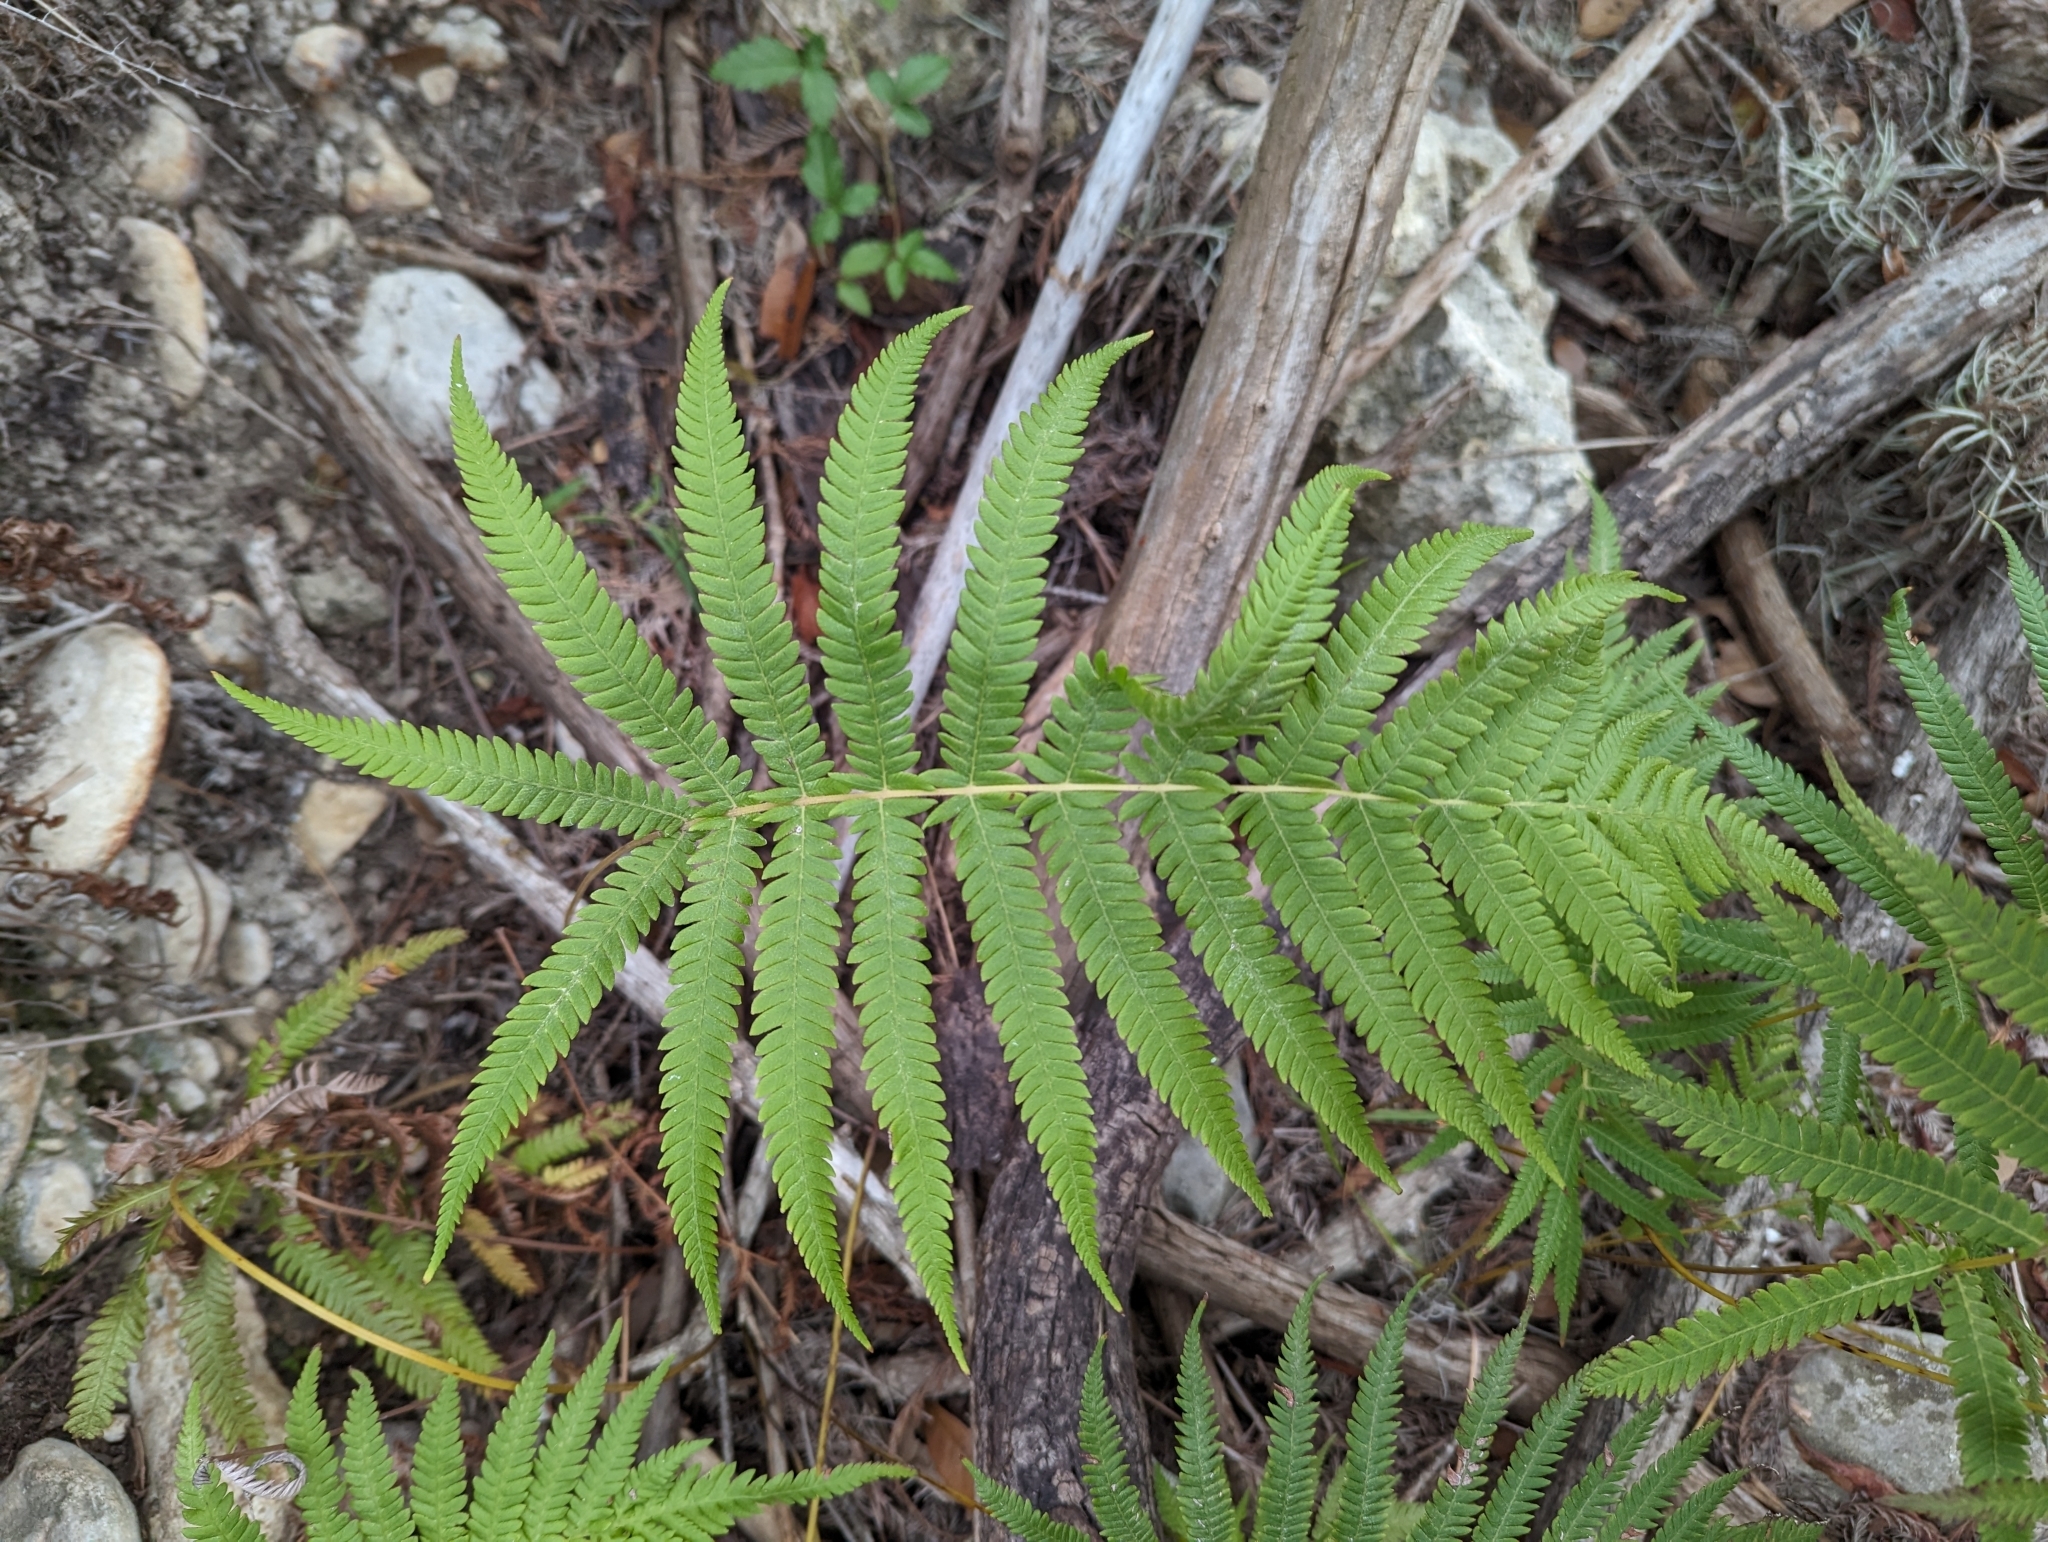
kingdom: Plantae
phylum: Tracheophyta
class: Polypodiopsida
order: Polypodiales
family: Thelypteridaceae
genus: Pelazoneuron
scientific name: Pelazoneuron ovatum
